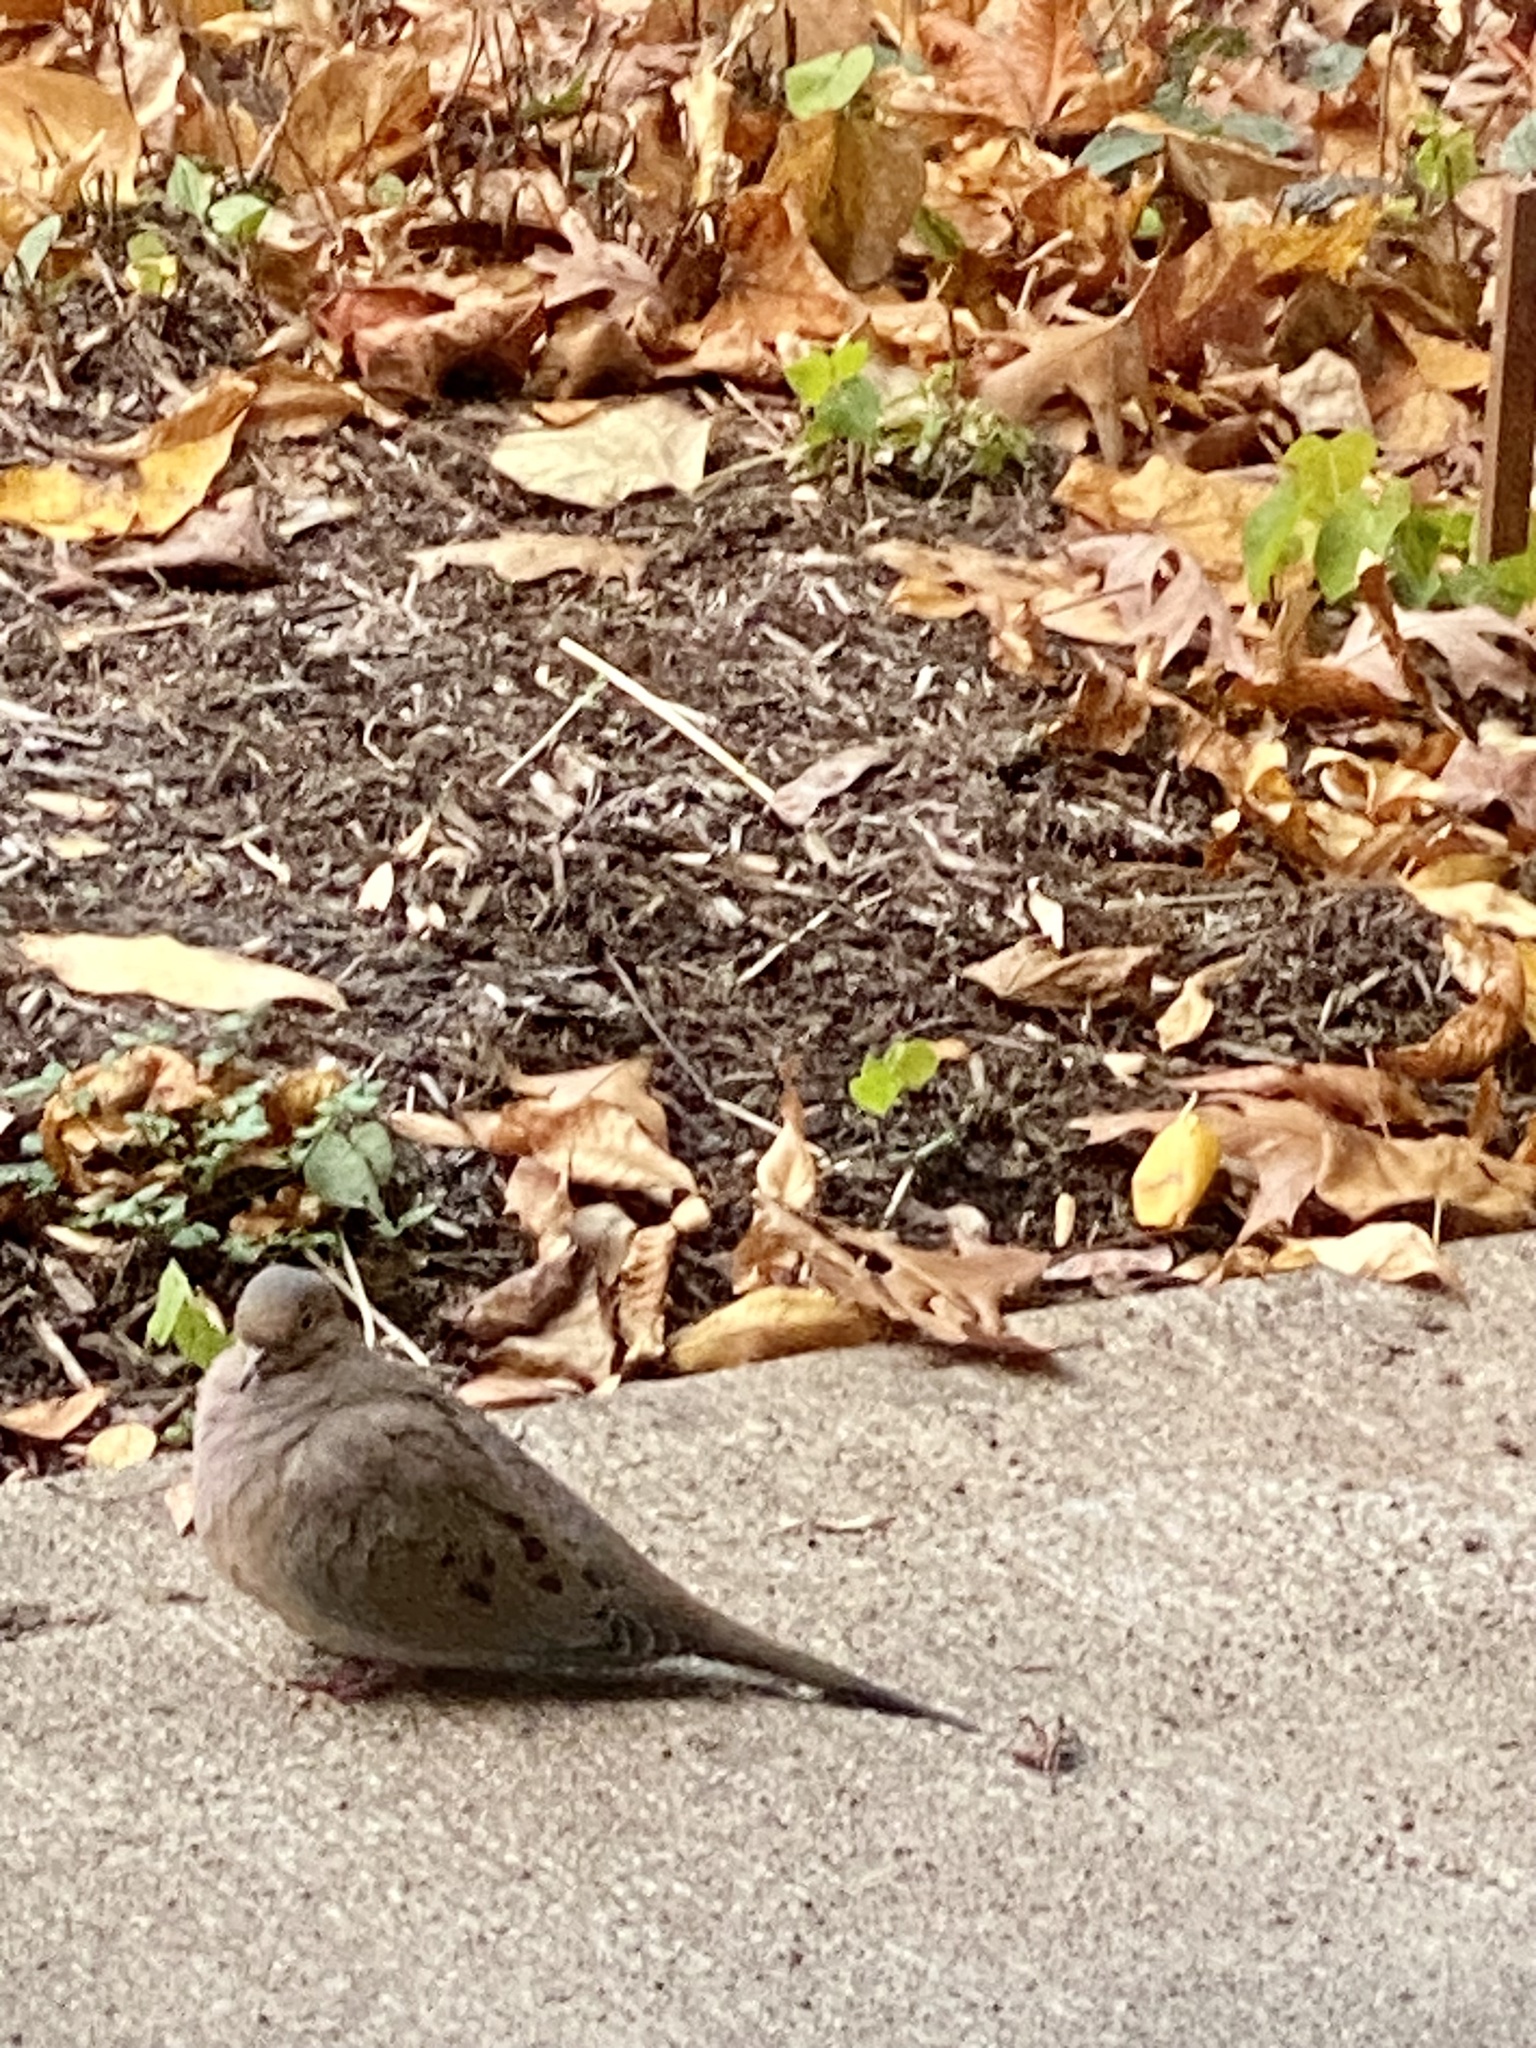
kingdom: Animalia
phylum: Chordata
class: Aves
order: Columbiformes
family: Columbidae
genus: Zenaida
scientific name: Zenaida macroura
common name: Mourning dove
